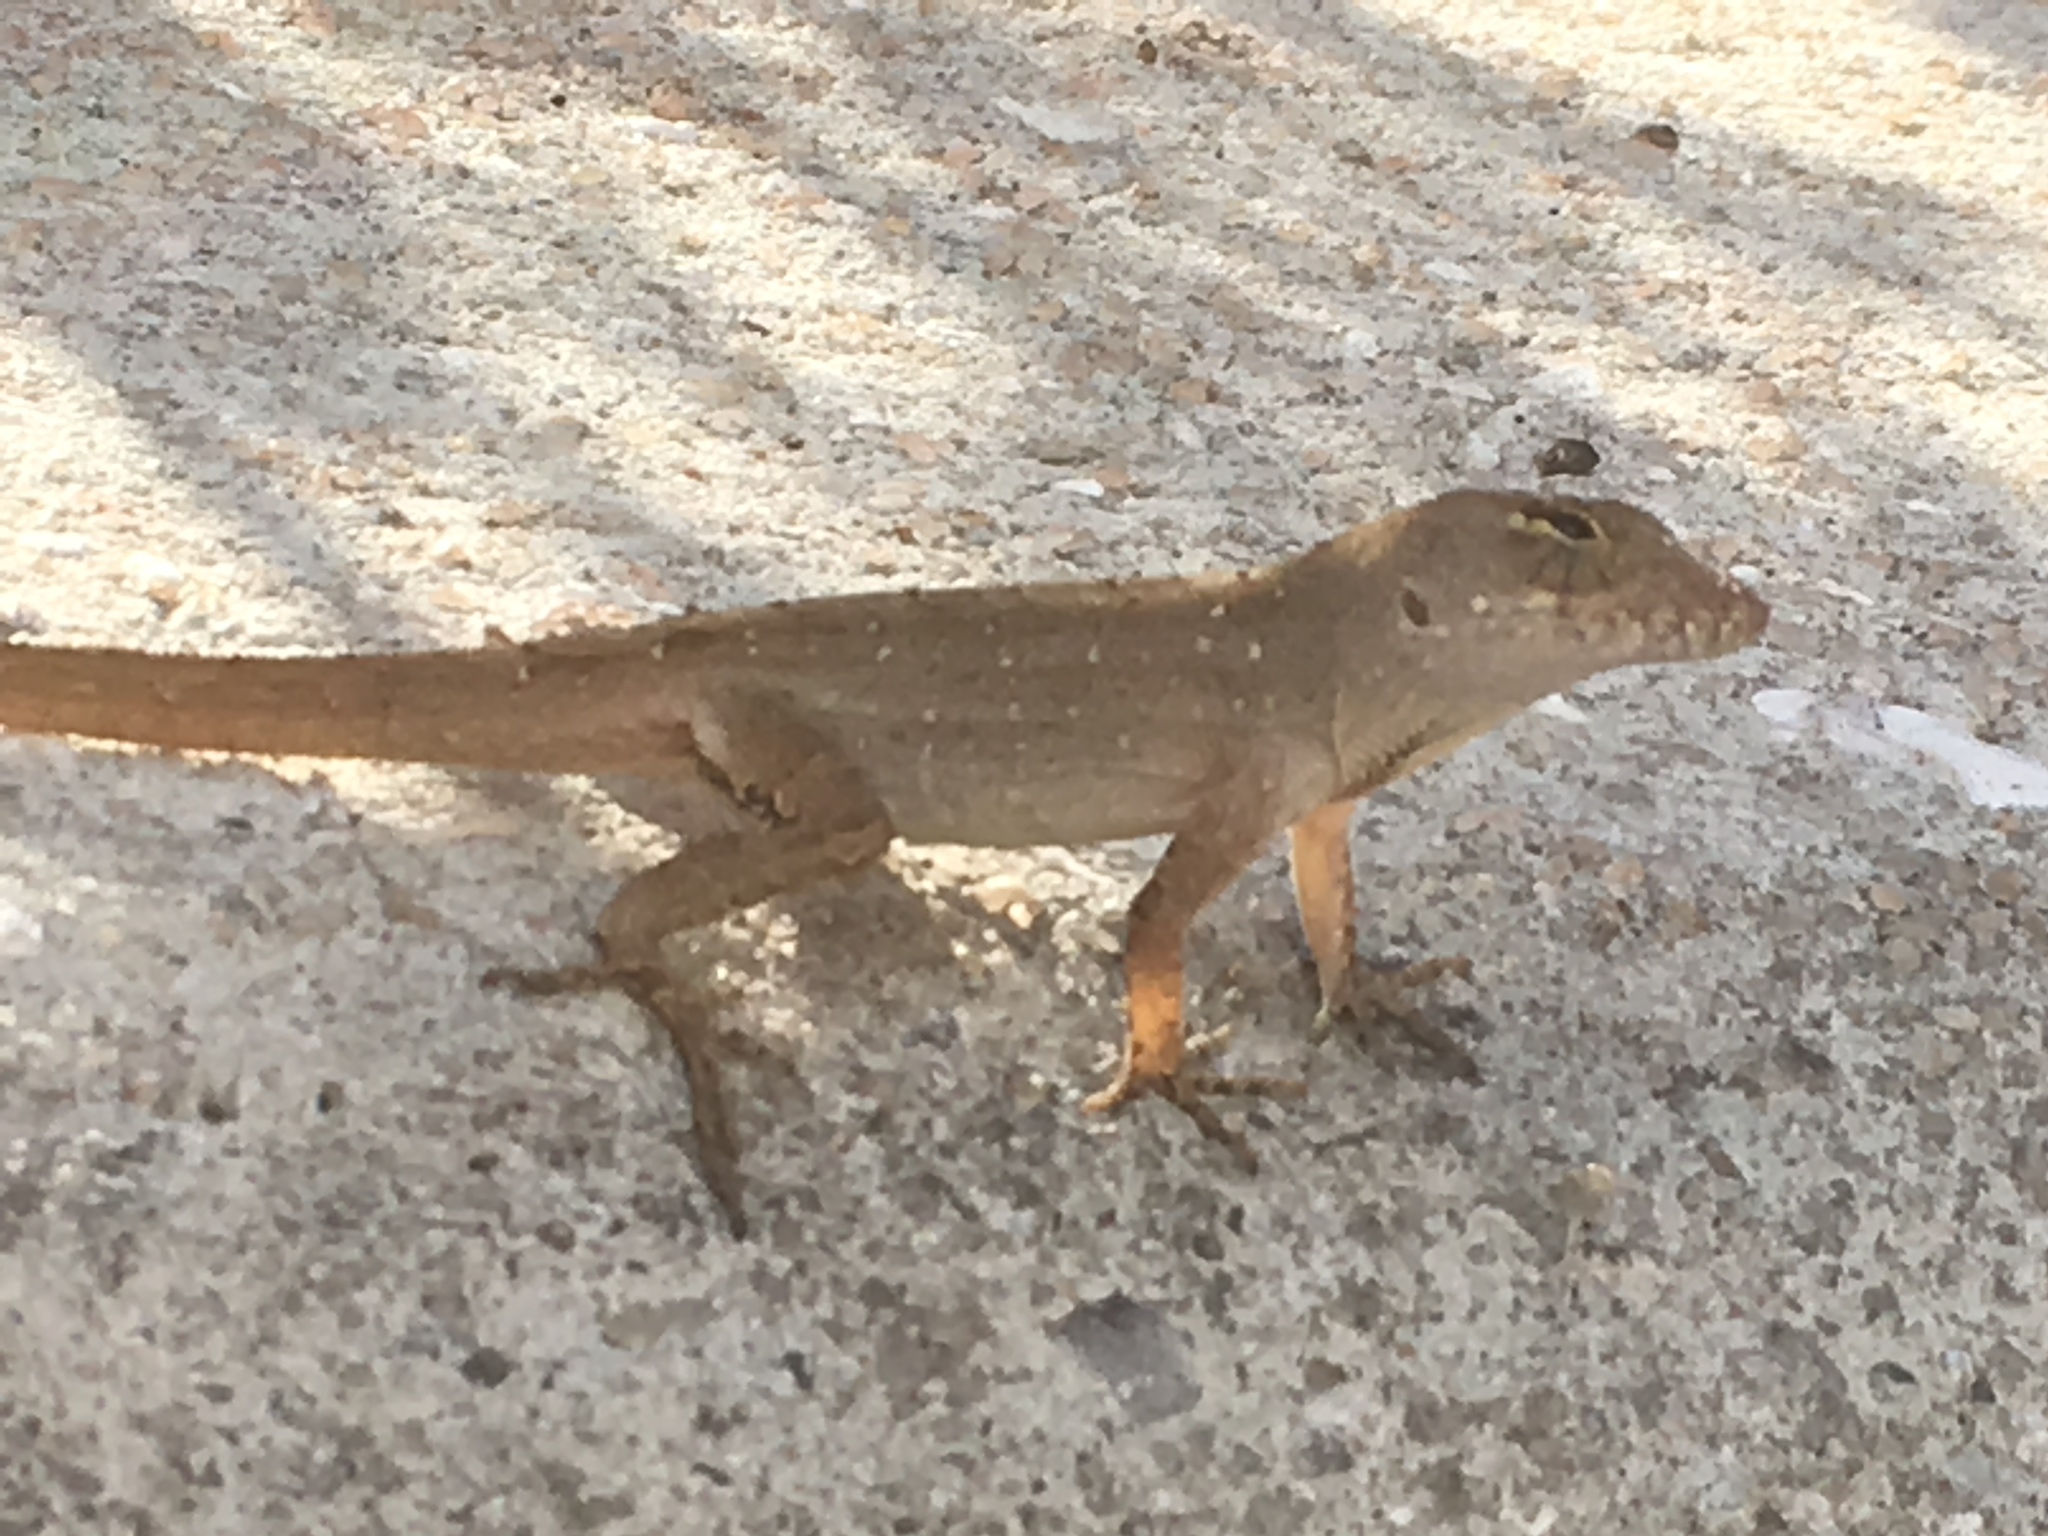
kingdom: Animalia
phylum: Chordata
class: Squamata
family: Dactyloidae
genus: Anolis
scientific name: Anolis sagrei
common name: Brown anole
